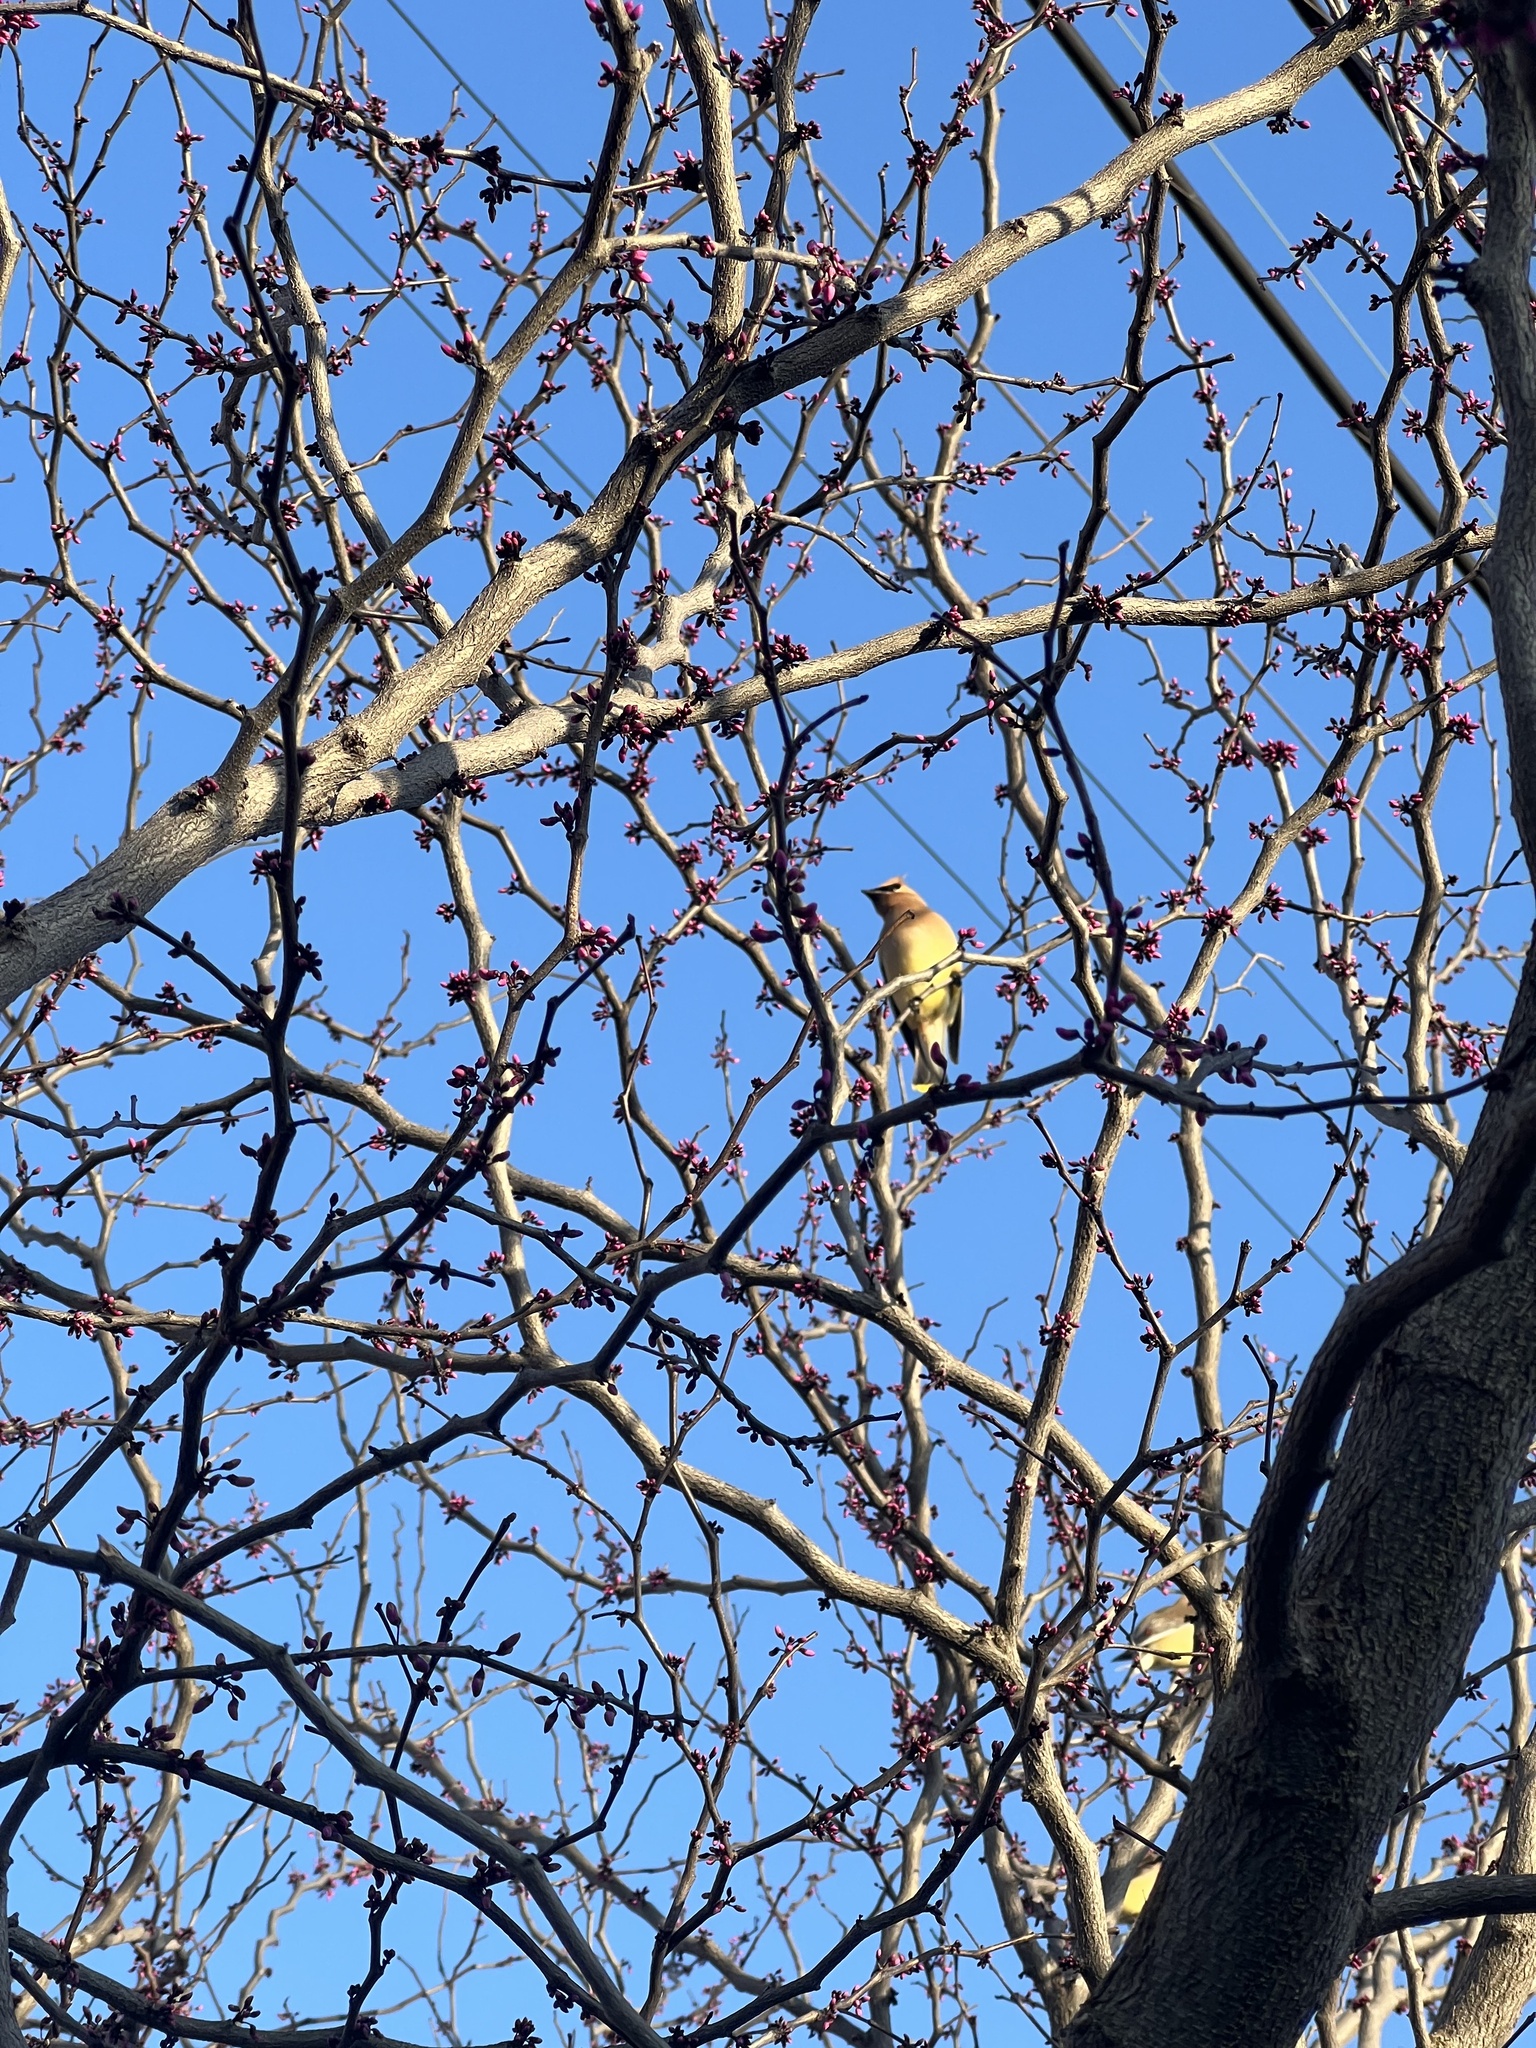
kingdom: Animalia
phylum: Chordata
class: Aves
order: Passeriformes
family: Bombycillidae
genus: Bombycilla
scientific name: Bombycilla cedrorum
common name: Cedar waxwing
